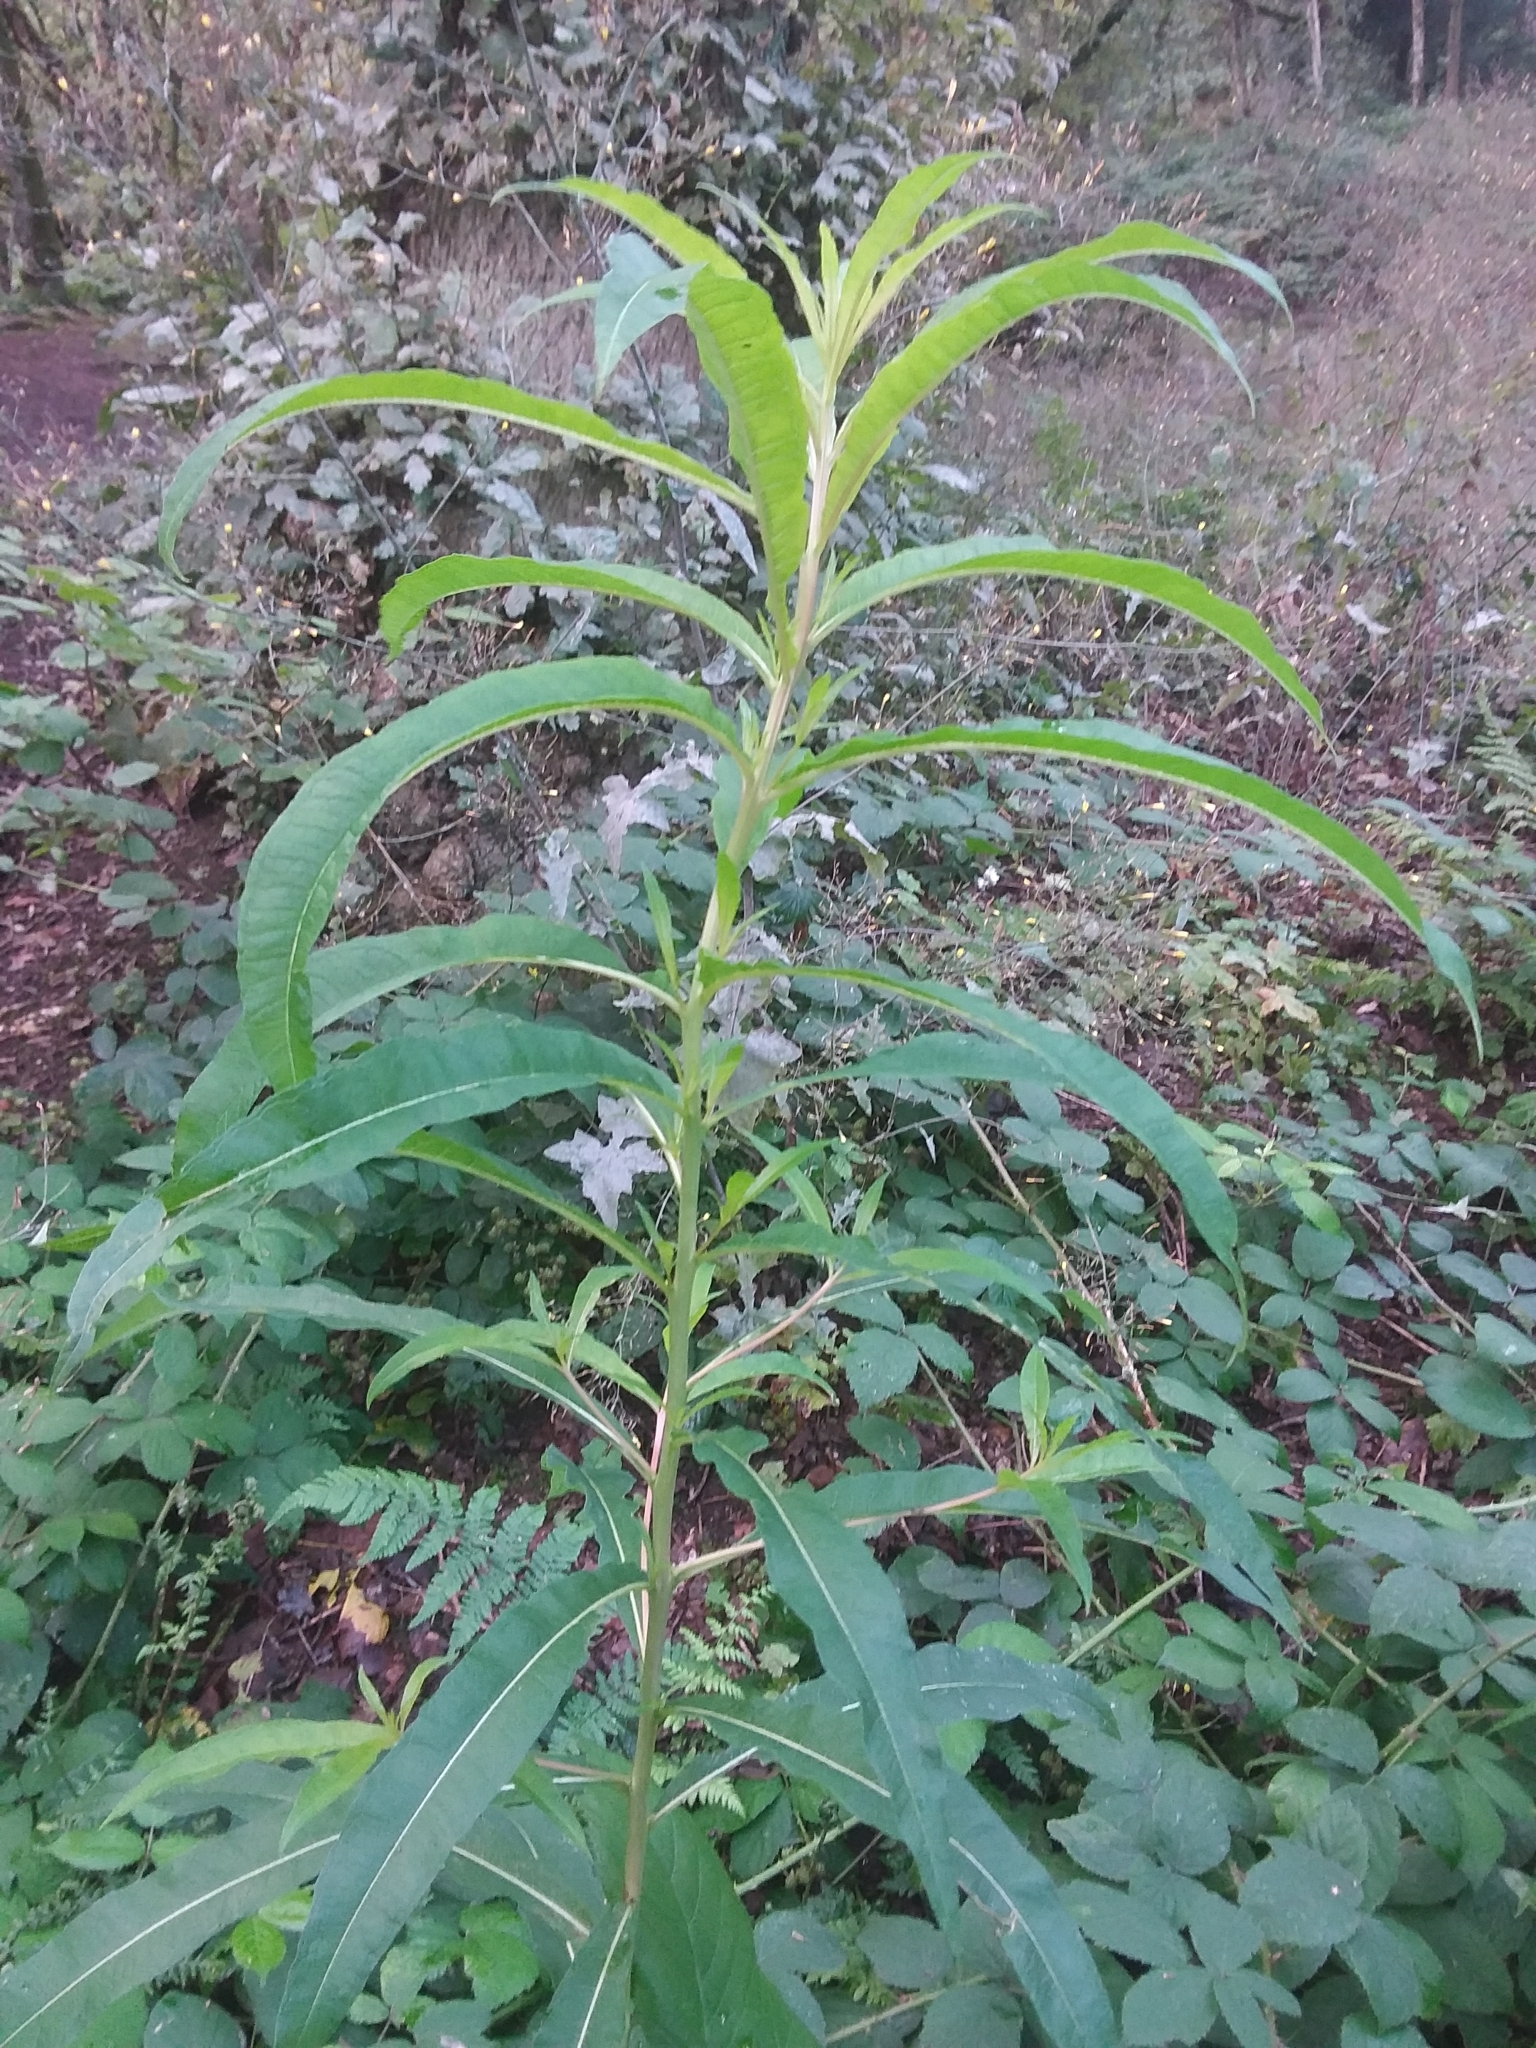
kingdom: Plantae
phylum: Tracheophyta
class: Magnoliopsida
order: Myrtales
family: Onagraceae
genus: Chamaenerion
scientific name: Chamaenerion angustifolium
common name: Fireweed
